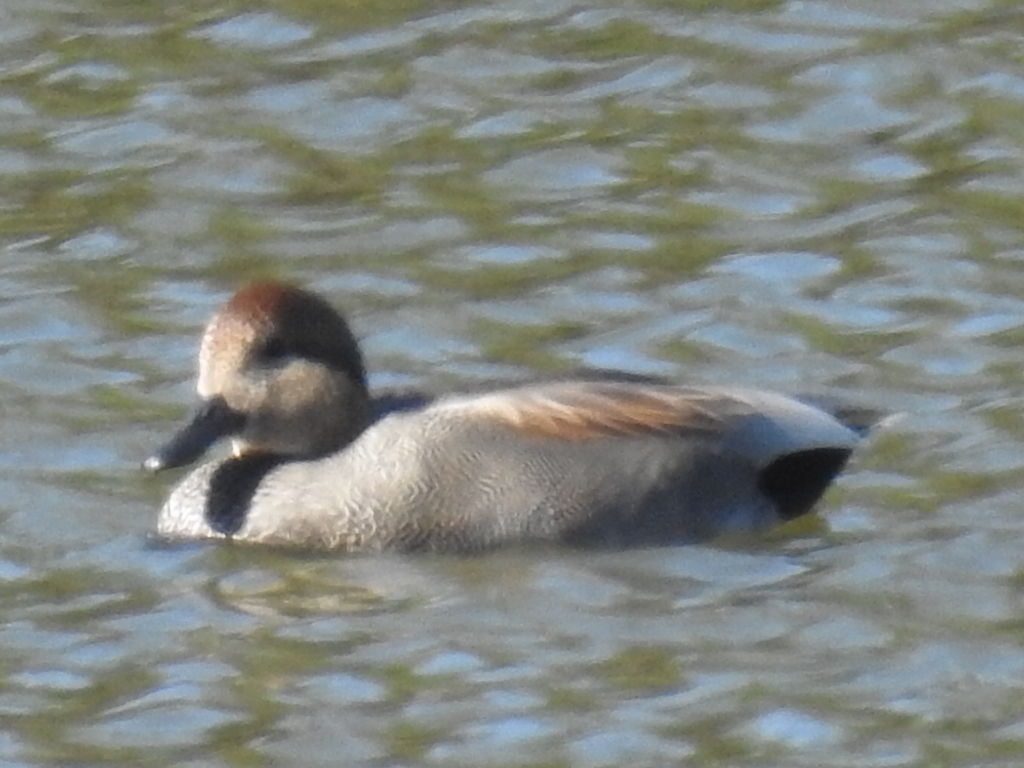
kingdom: Animalia
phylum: Chordata
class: Aves
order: Anseriformes
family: Anatidae
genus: Mareca
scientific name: Mareca strepera
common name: Gadwall
